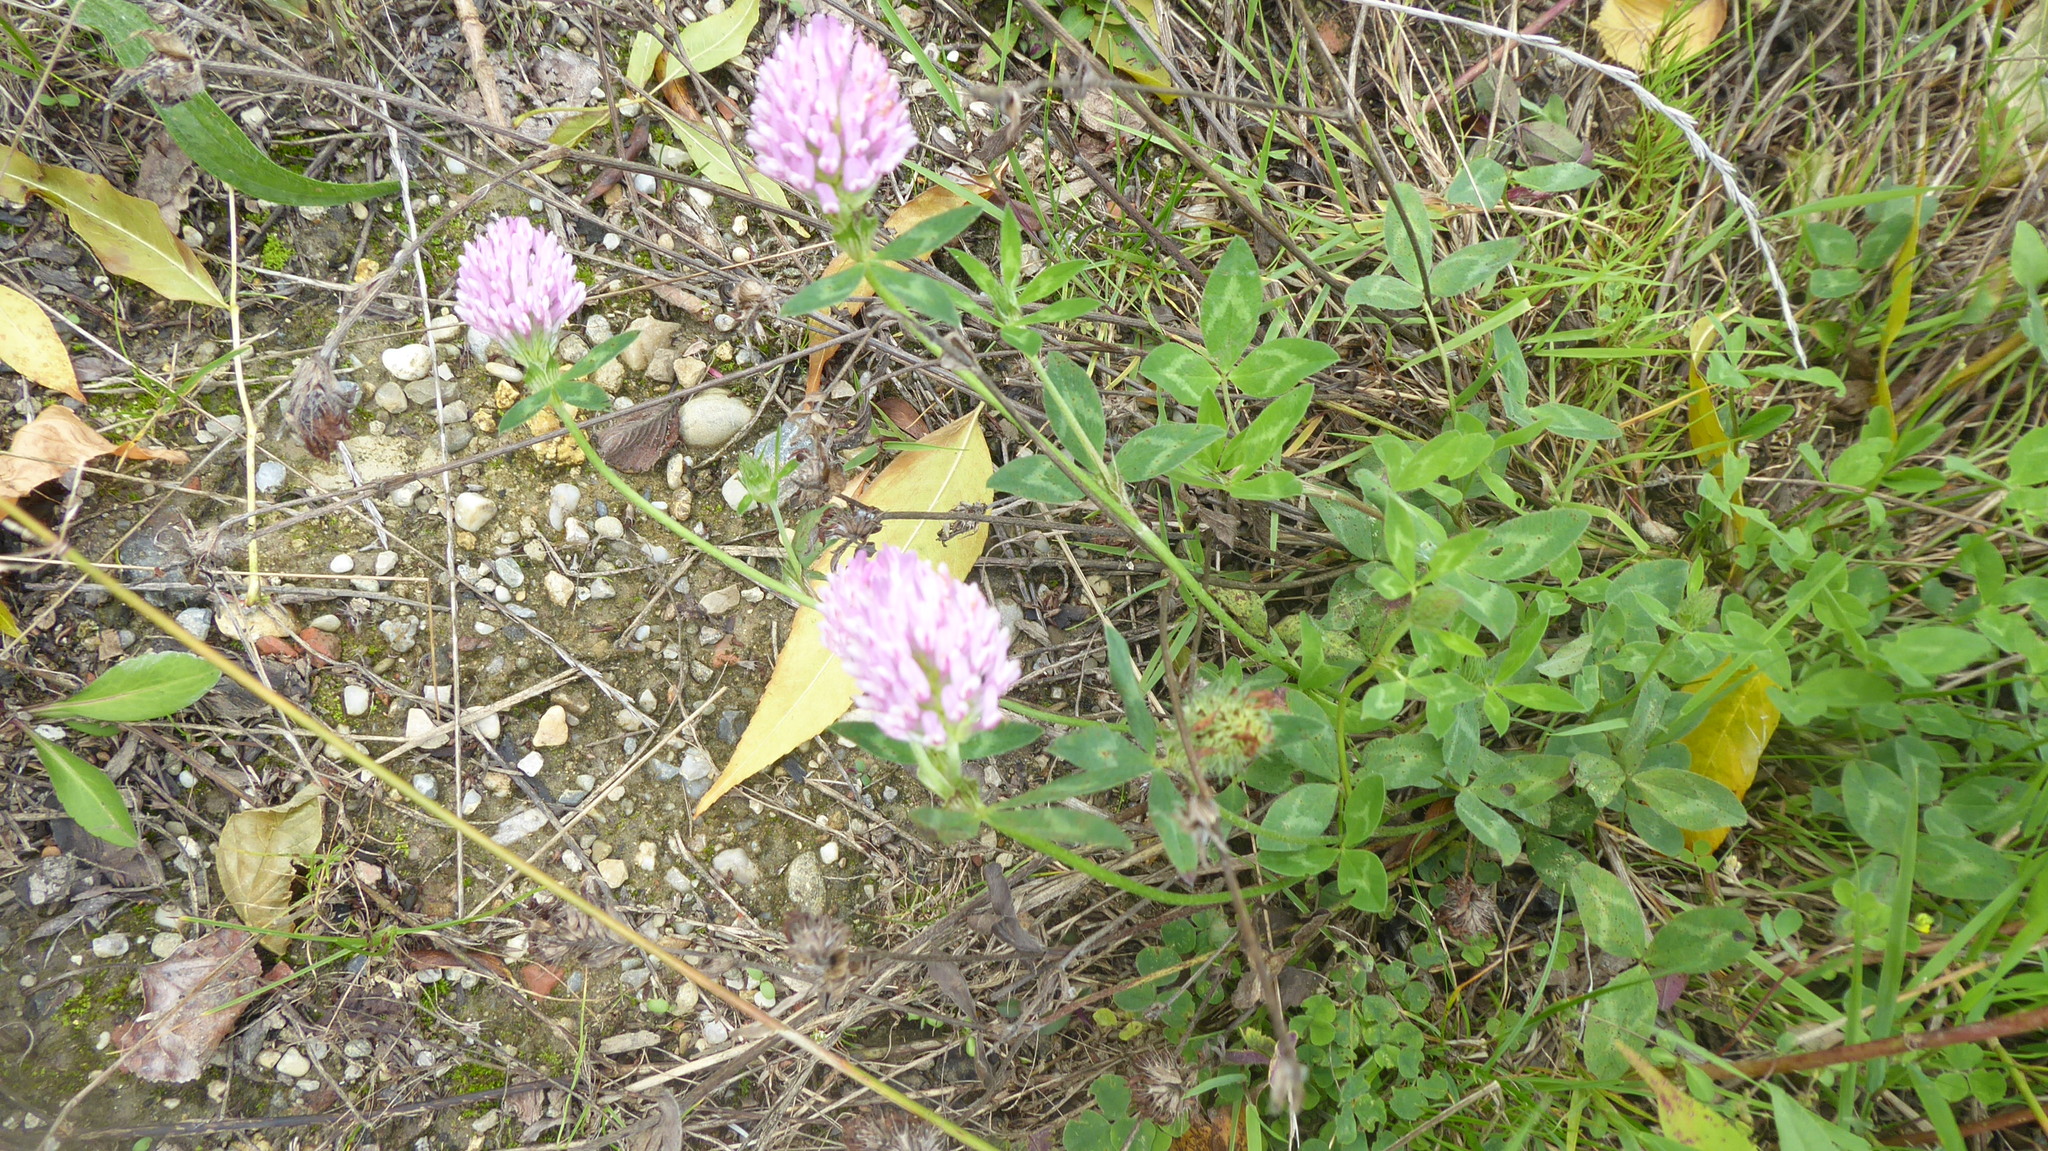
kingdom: Plantae
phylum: Tracheophyta
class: Magnoliopsida
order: Fabales
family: Fabaceae
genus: Trifolium
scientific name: Trifolium pratense
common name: Red clover
